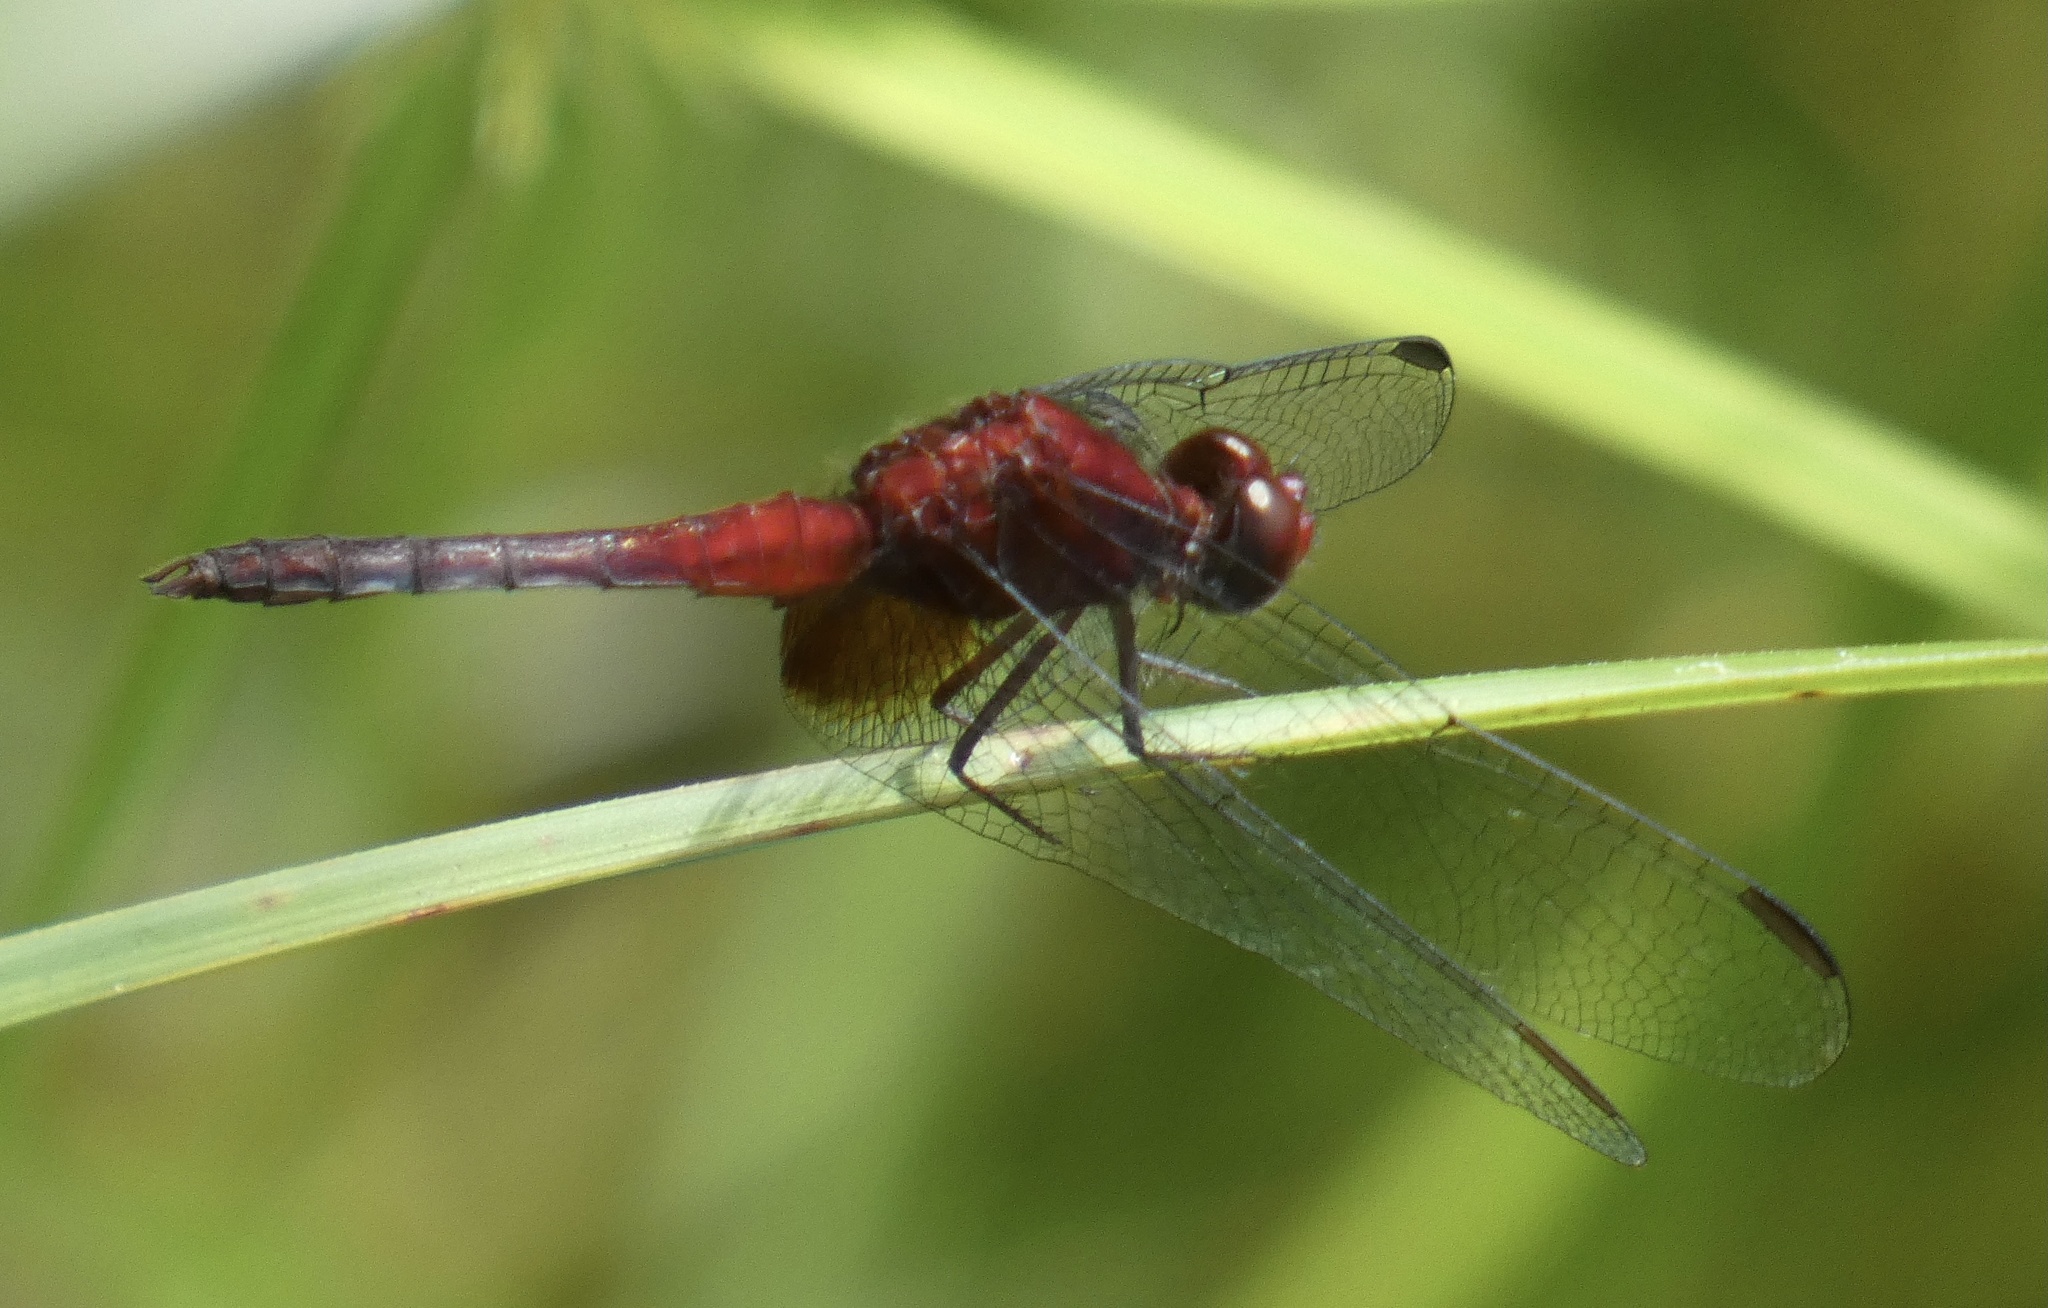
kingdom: Animalia
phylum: Arthropoda
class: Insecta
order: Odonata
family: Libellulidae
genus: Erythrodiplax
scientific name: Erythrodiplax fusca
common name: Red-faced dragonlet
